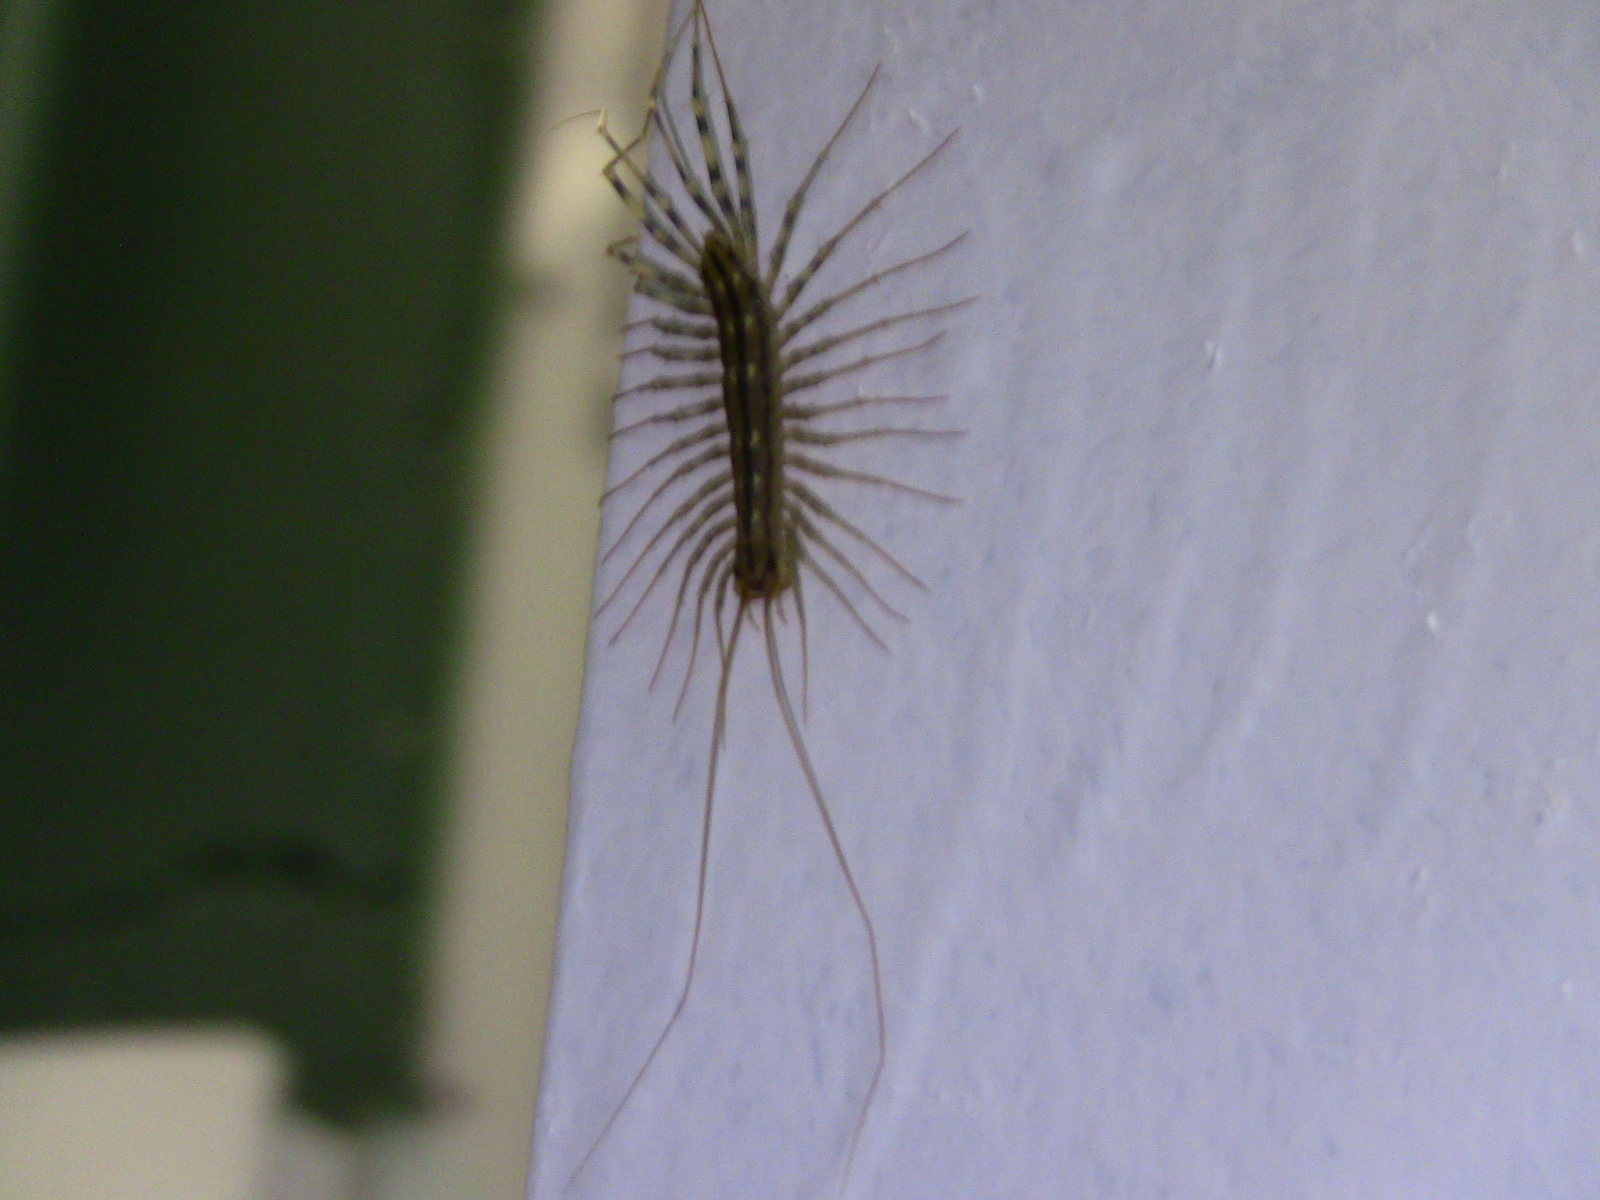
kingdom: Animalia
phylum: Arthropoda
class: Chilopoda
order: Scutigeromorpha
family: Scutigeridae
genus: Scutigera
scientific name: Scutigera coleoptrata
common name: House centipede
